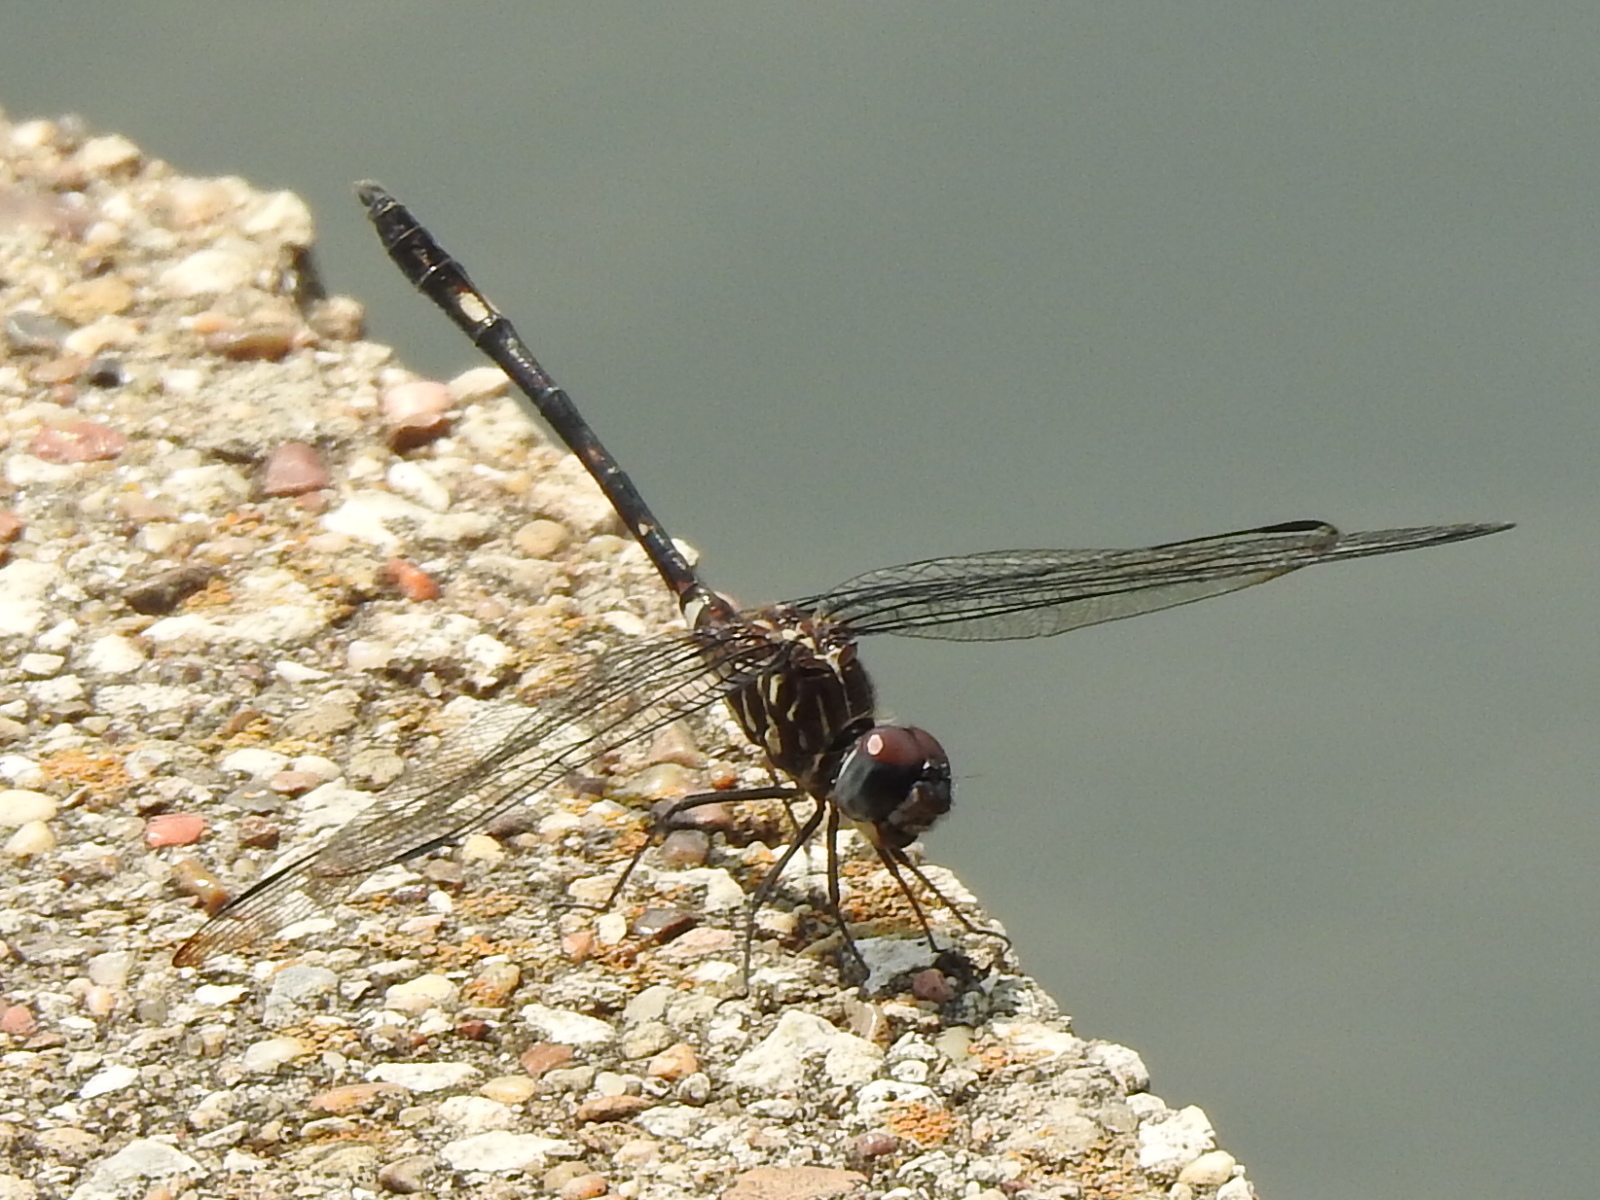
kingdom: Animalia
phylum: Arthropoda
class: Insecta
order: Odonata
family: Libellulidae
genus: Dythemis
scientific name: Dythemis velox
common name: Swift setwing
